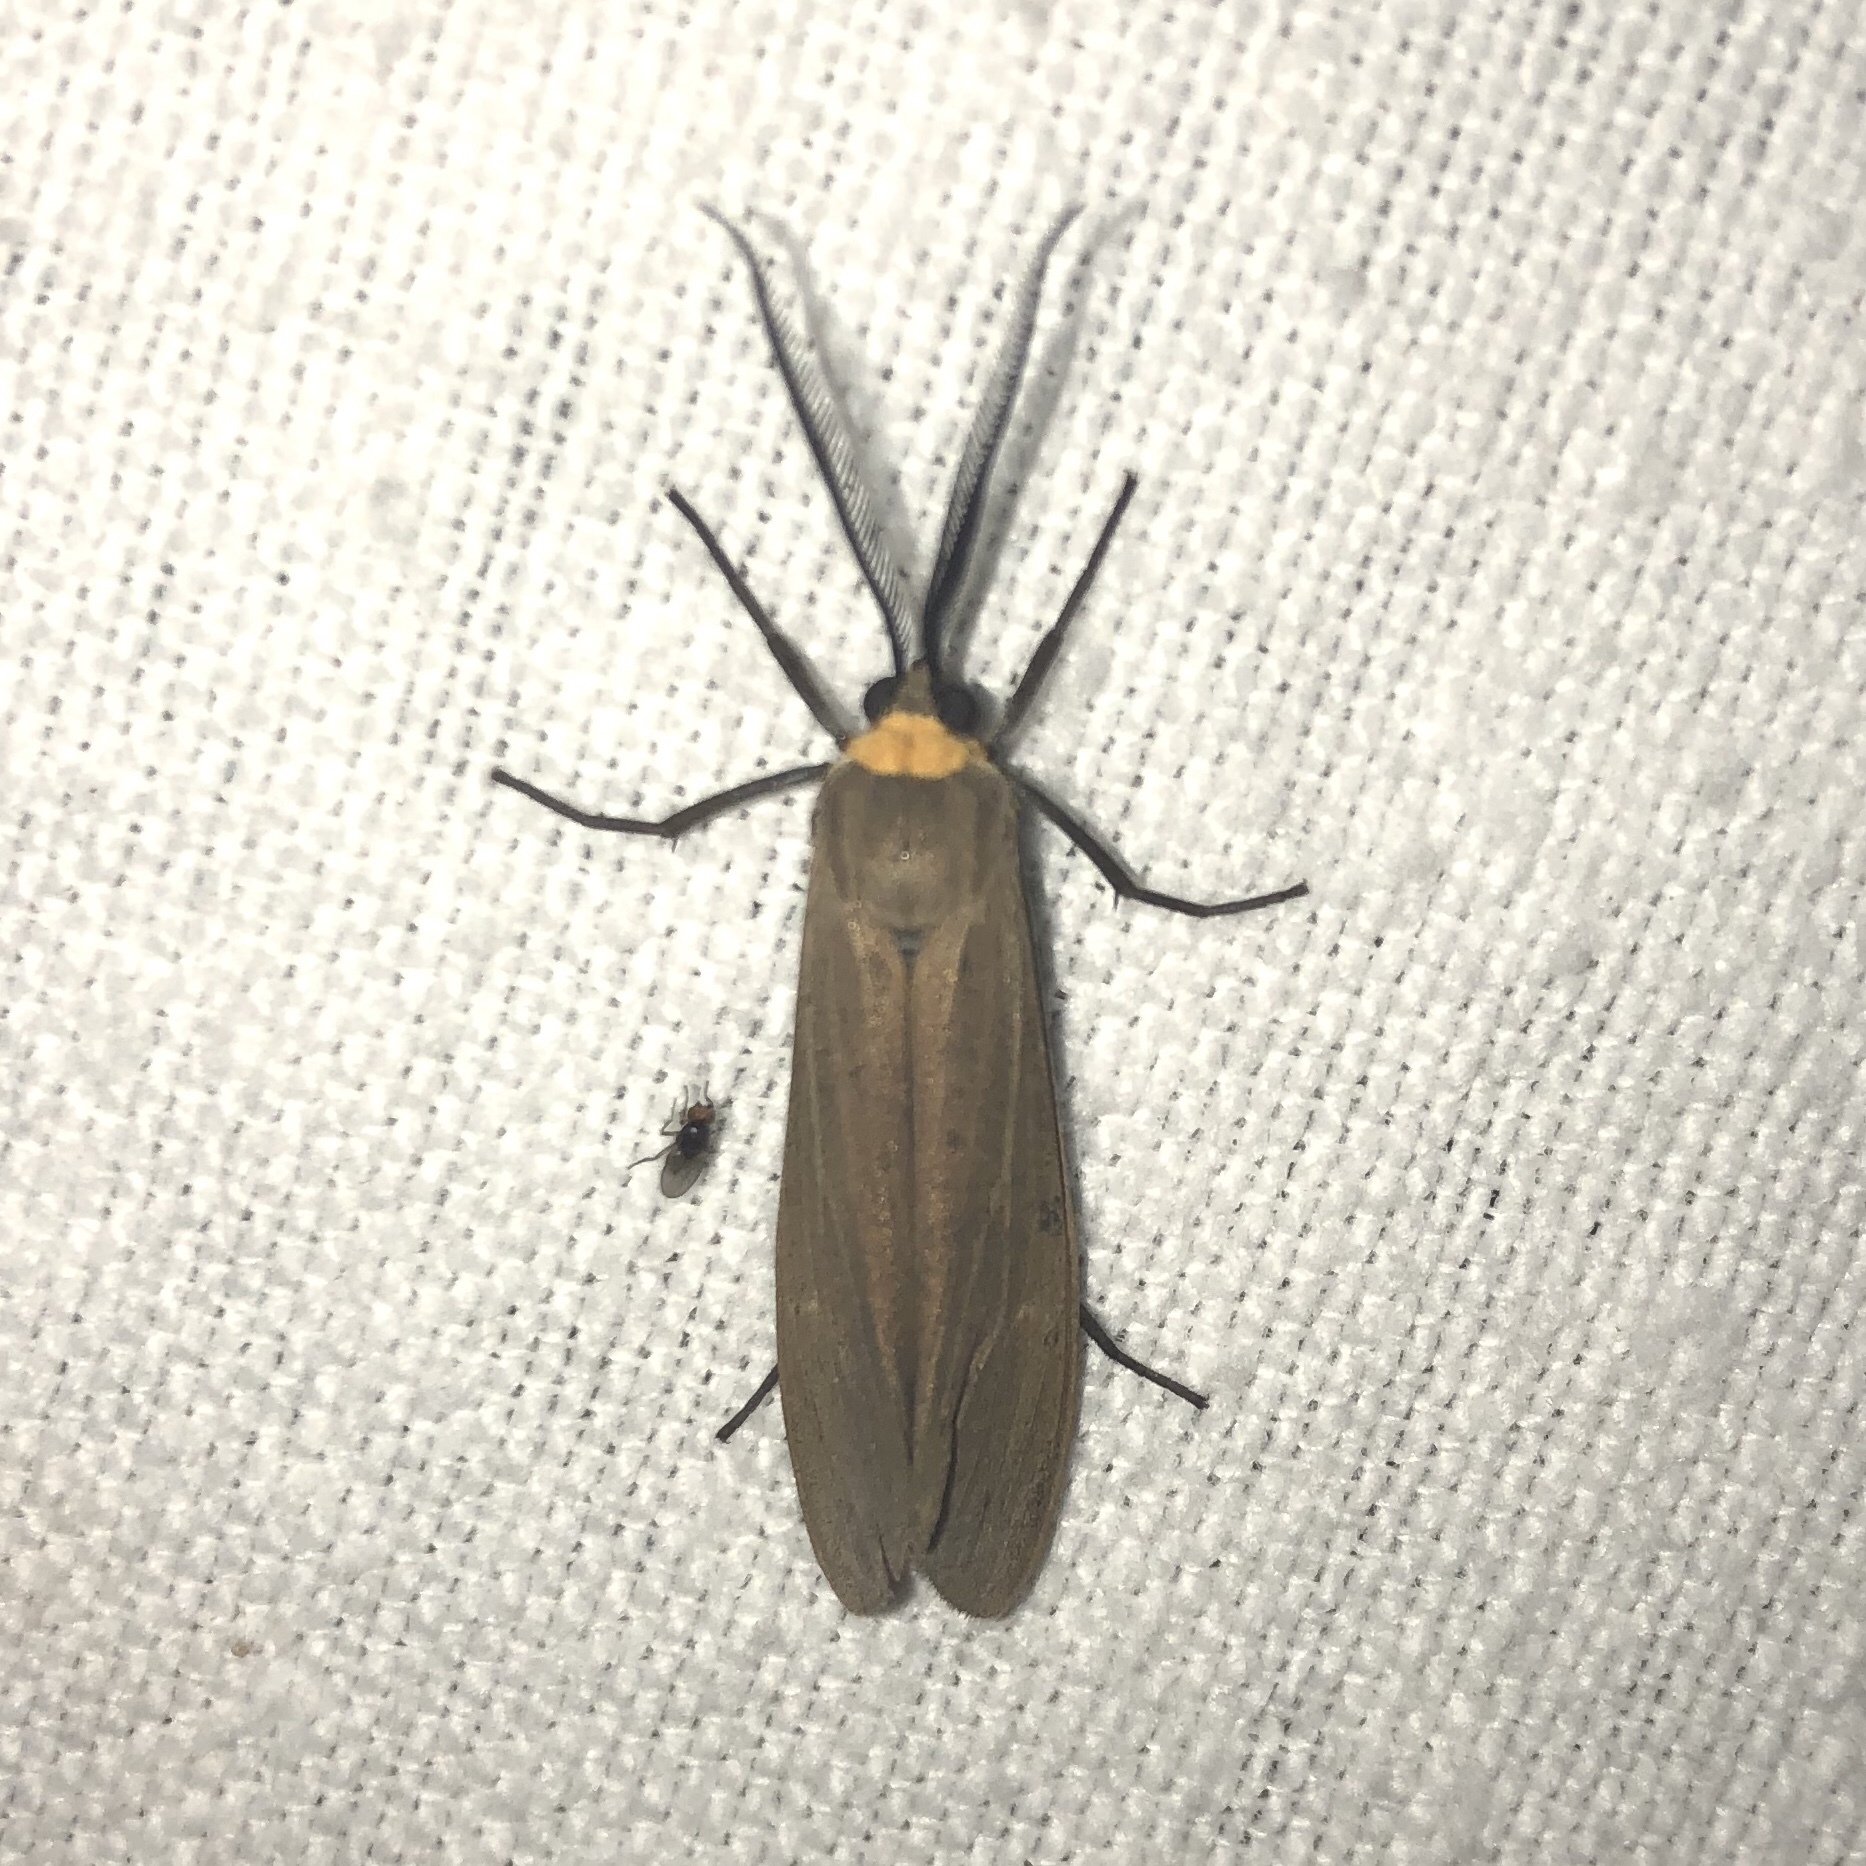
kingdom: Animalia
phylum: Arthropoda
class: Insecta
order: Lepidoptera
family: Erebidae
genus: Cisseps
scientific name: Cisseps fulvicollis
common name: Yellow-collared scape moth
